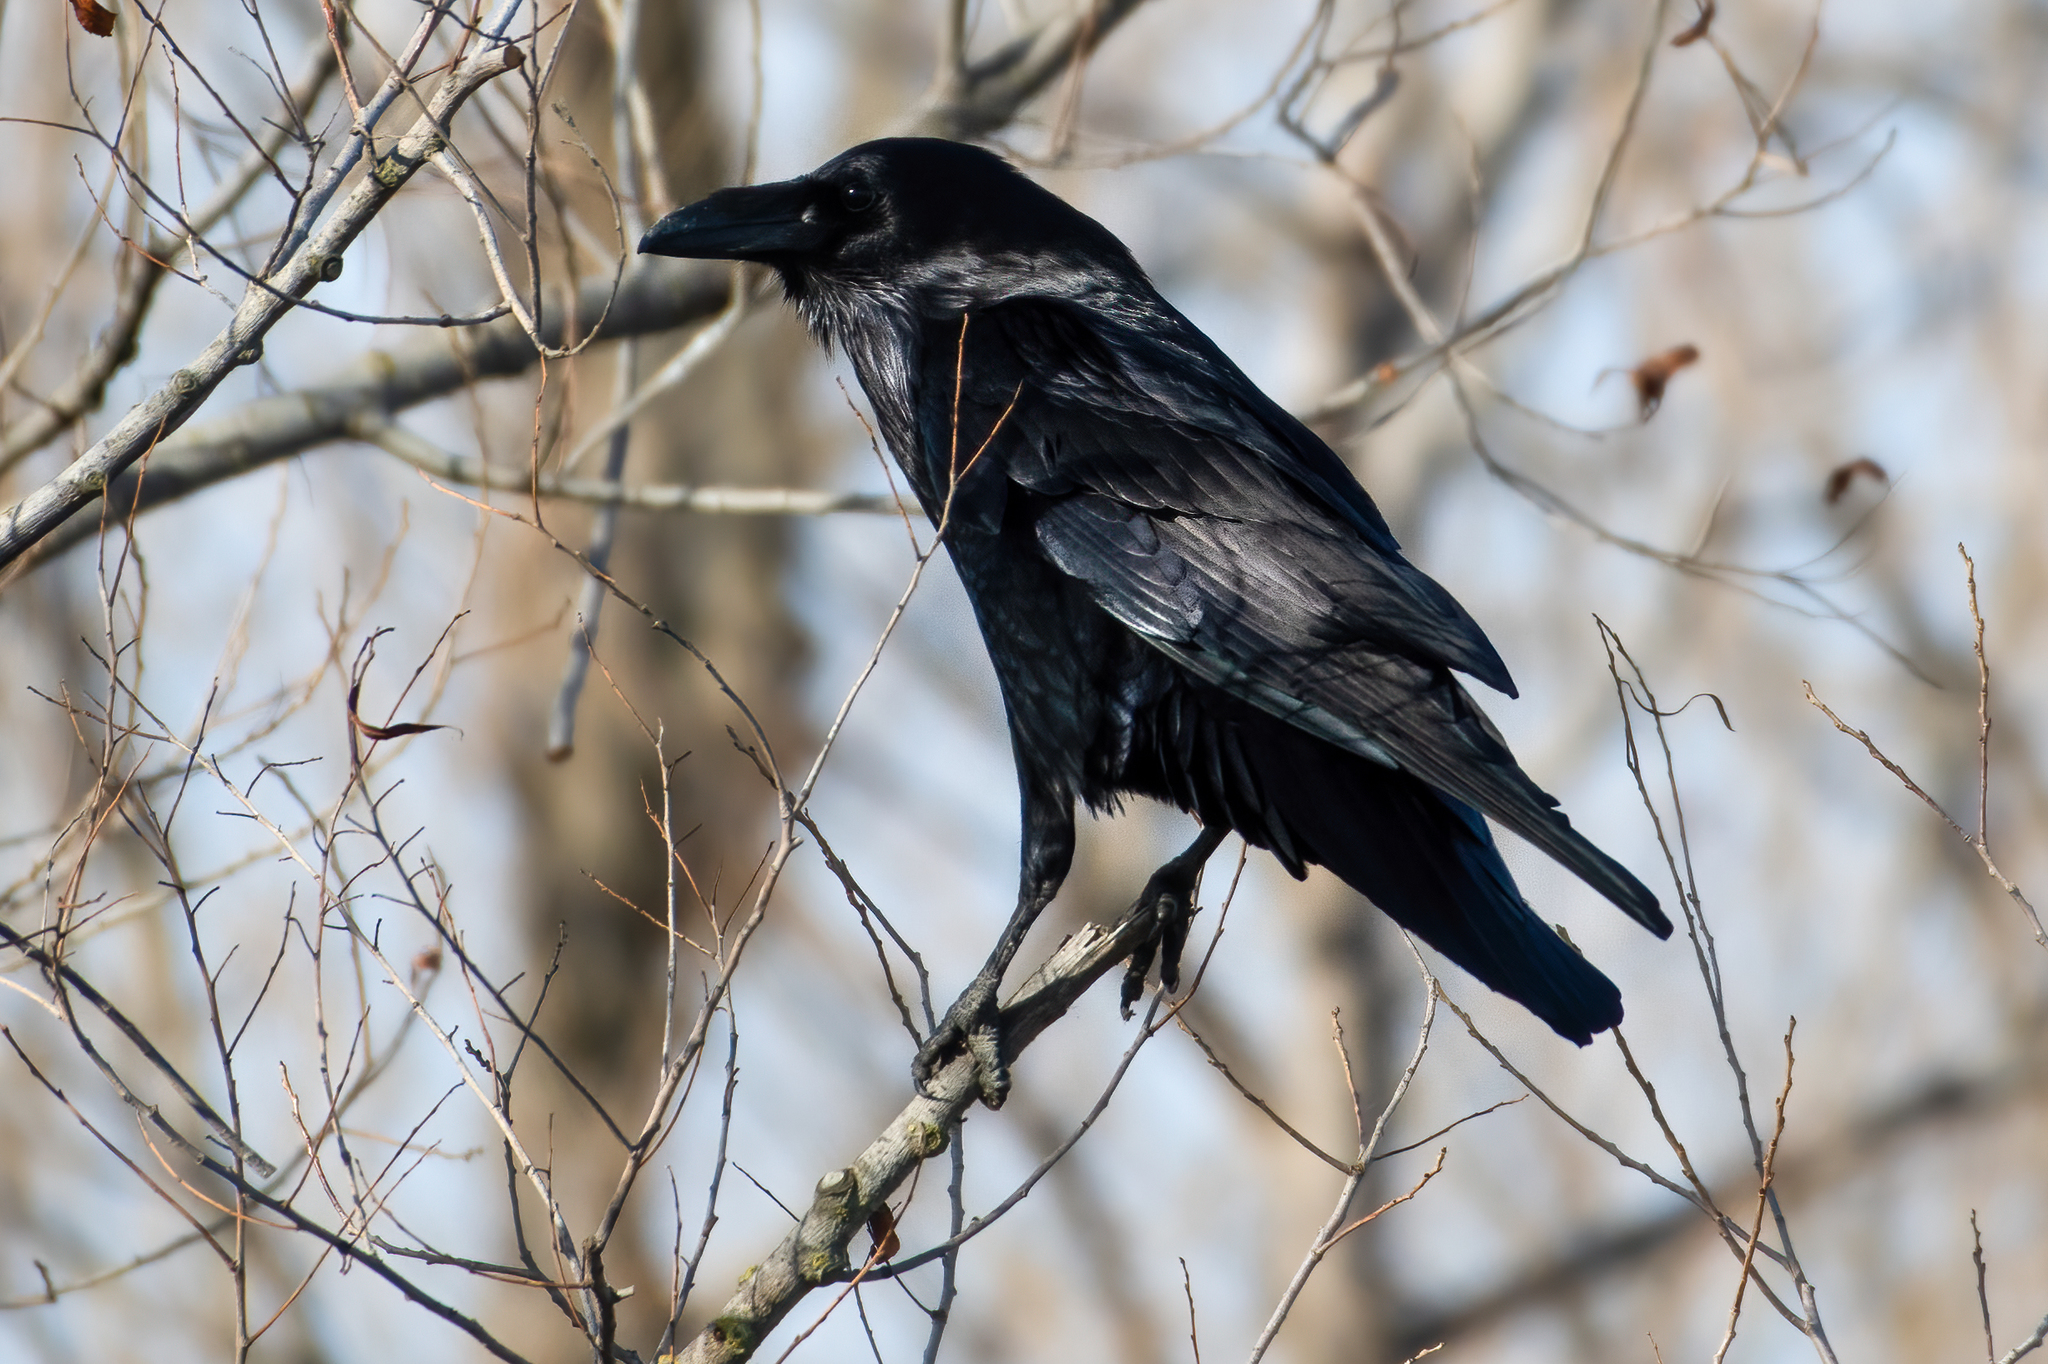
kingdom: Animalia
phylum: Chordata
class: Aves
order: Passeriformes
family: Corvidae
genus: Corvus
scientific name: Corvus corax
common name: Common raven
